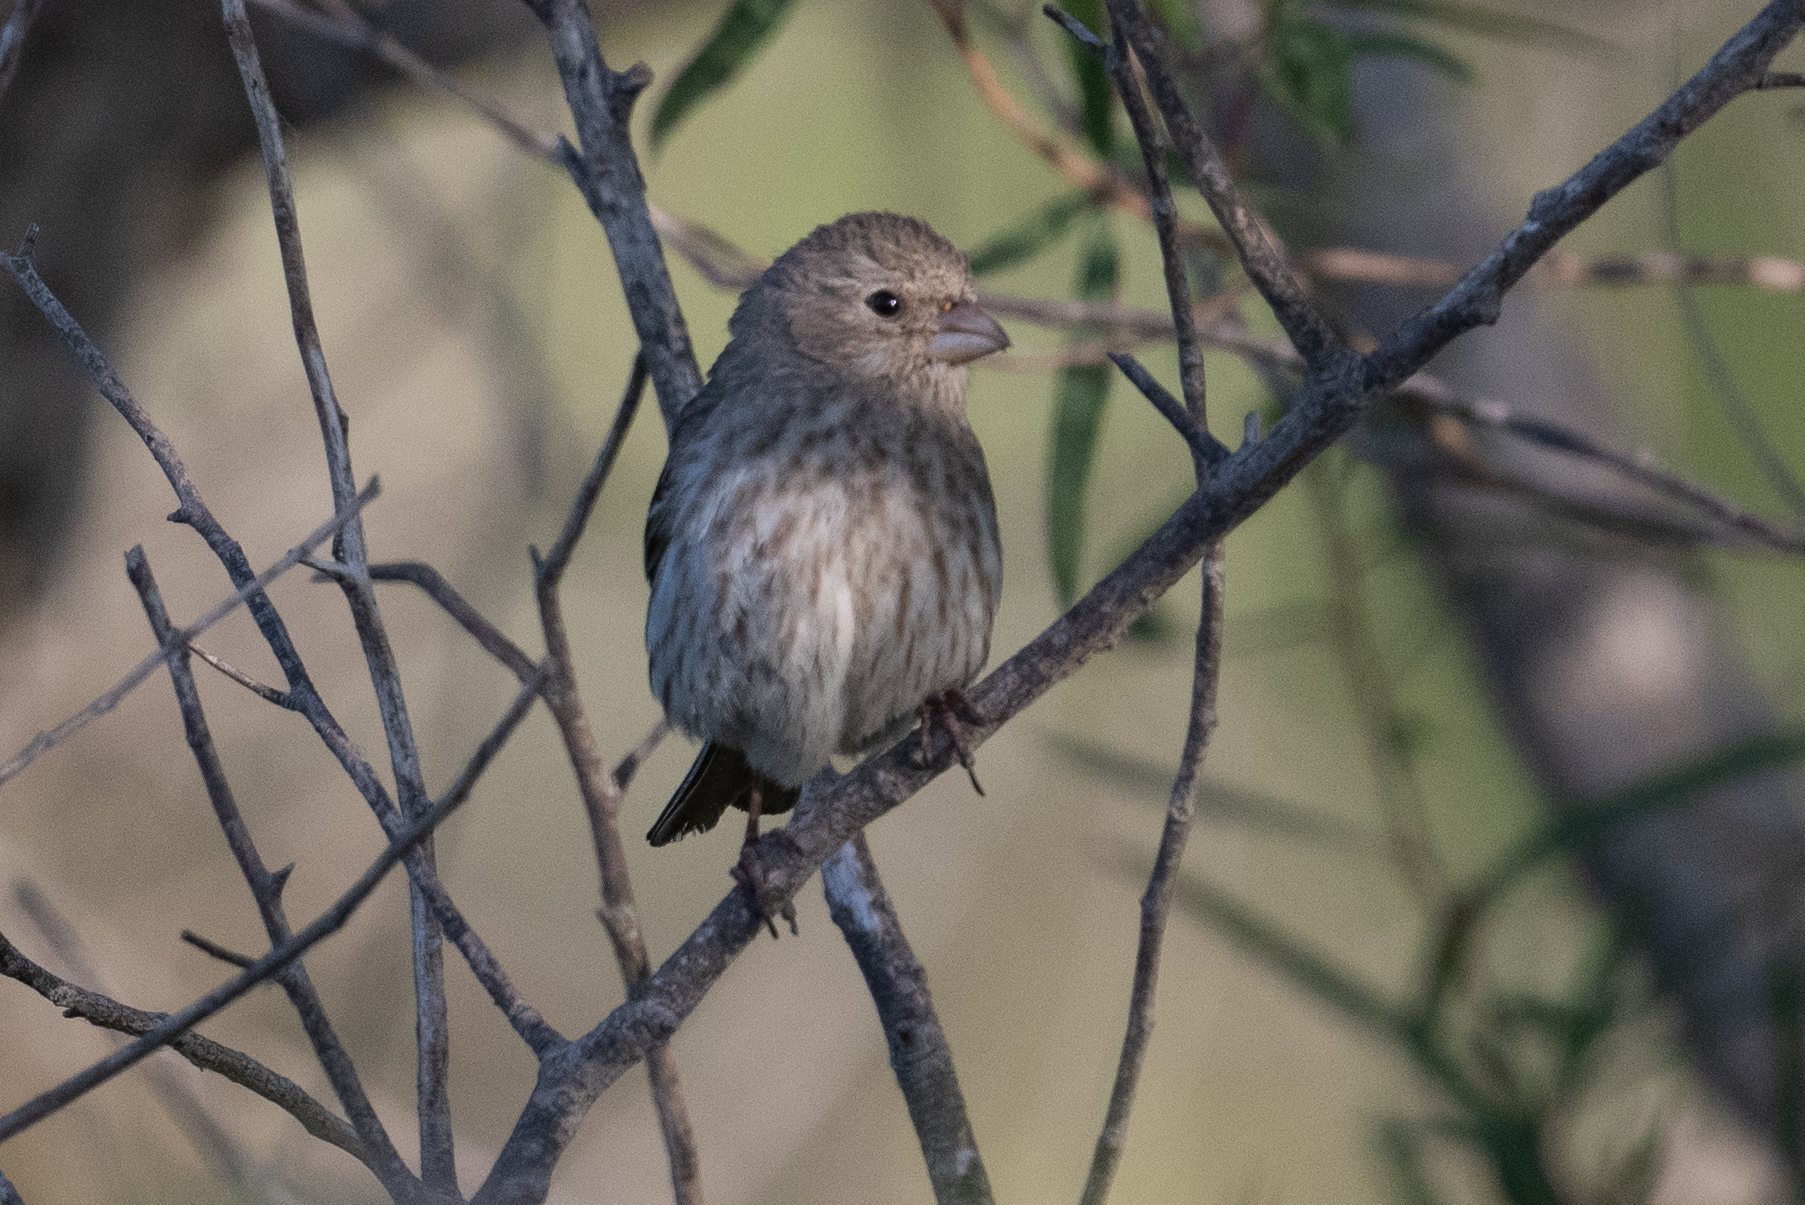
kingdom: Animalia
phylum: Chordata
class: Aves
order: Passeriformes
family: Fringillidae
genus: Haemorhous
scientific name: Haemorhous mexicanus
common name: House finch
